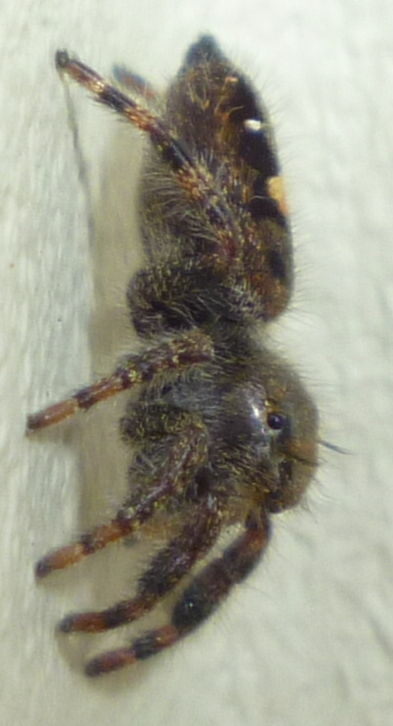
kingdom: Animalia
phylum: Arthropoda
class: Arachnida
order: Araneae
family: Salticidae
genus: Phidippus
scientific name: Phidippus audax
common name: Bold jumper
